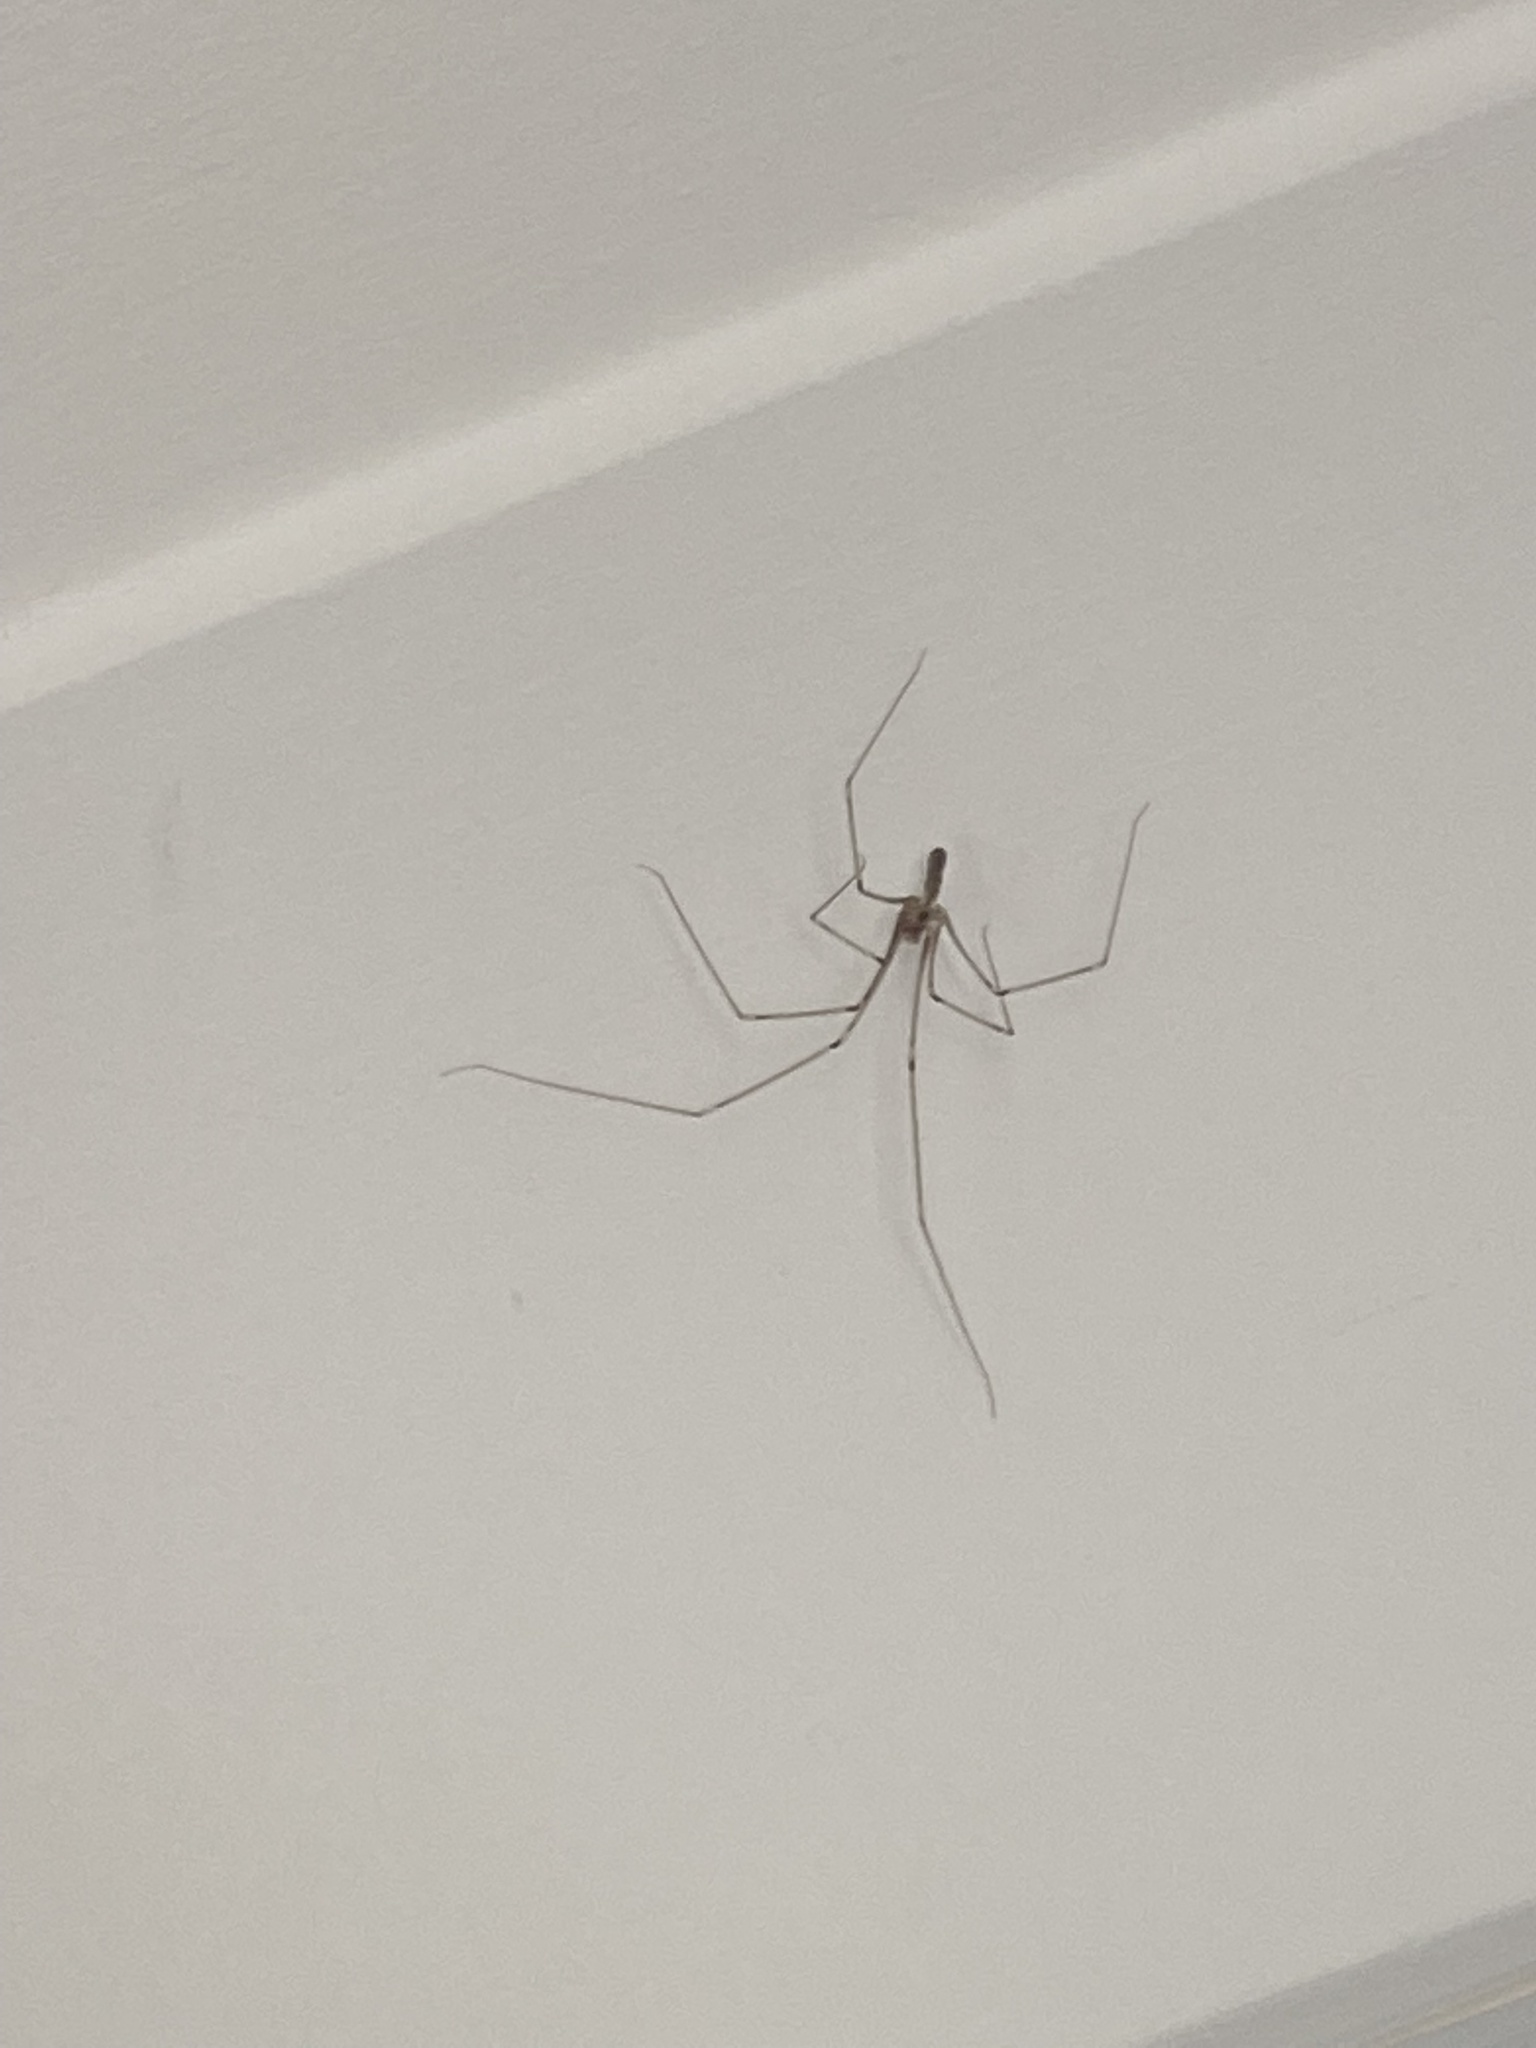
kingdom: Animalia
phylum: Arthropoda
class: Arachnida
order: Araneae
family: Pholcidae
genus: Pholcus
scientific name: Pholcus phalangioides
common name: Longbodied cellar spider
